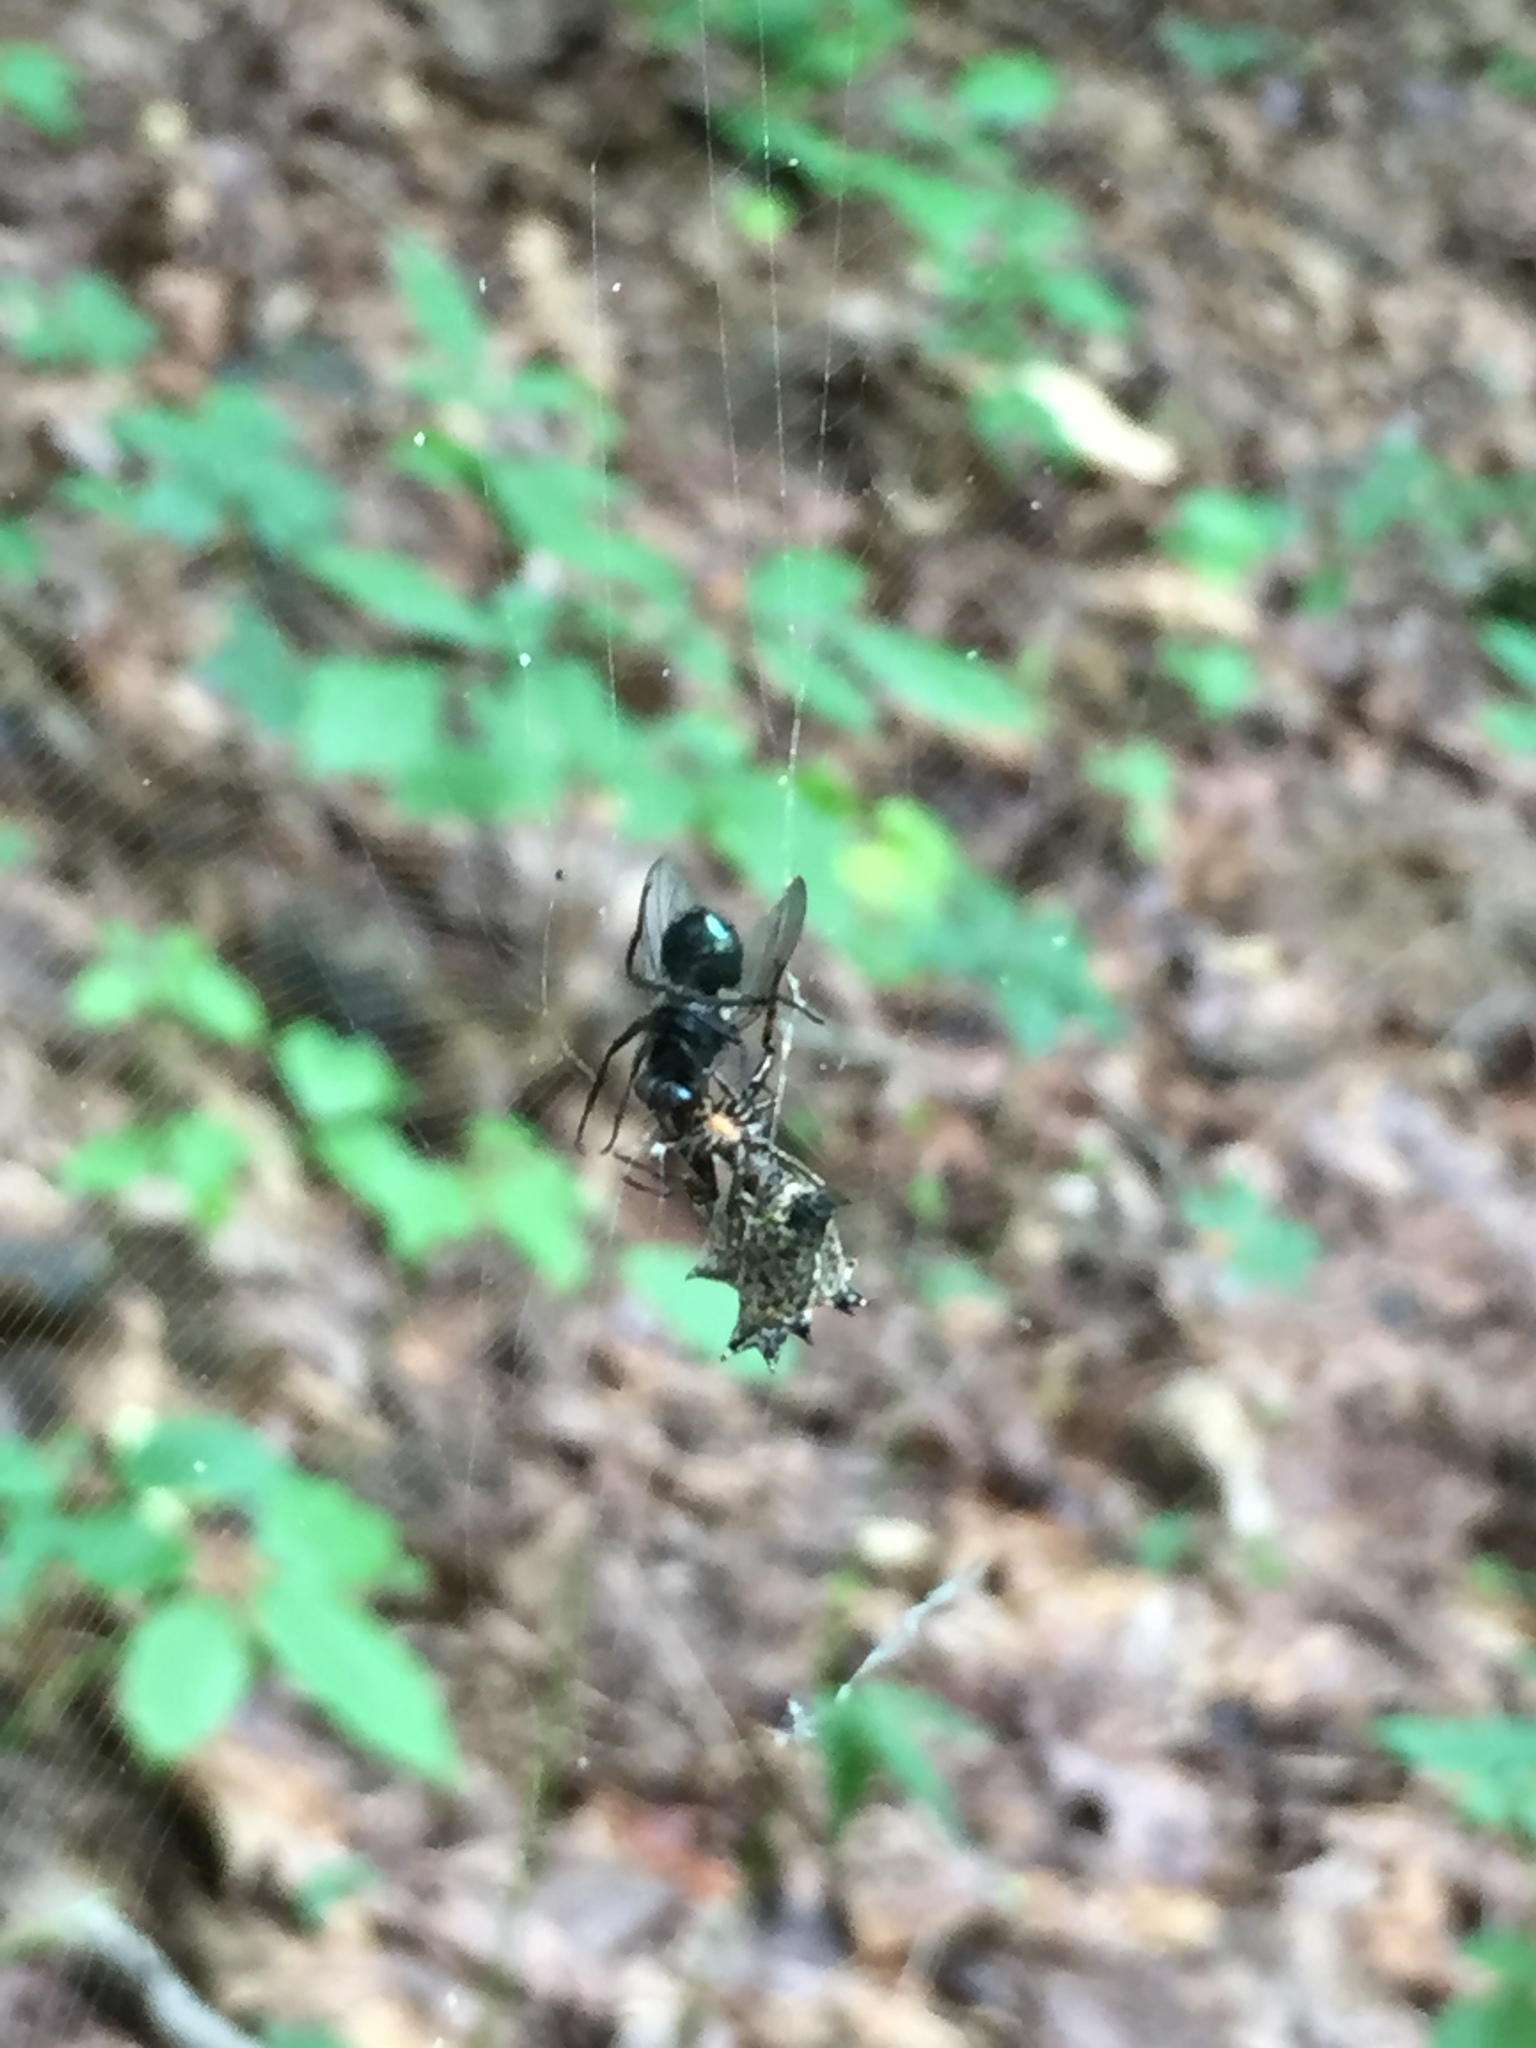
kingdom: Animalia
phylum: Arthropoda
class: Arachnida
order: Araneae
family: Araneidae
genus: Micrathena
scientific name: Micrathena gracilis
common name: Orb weavers
